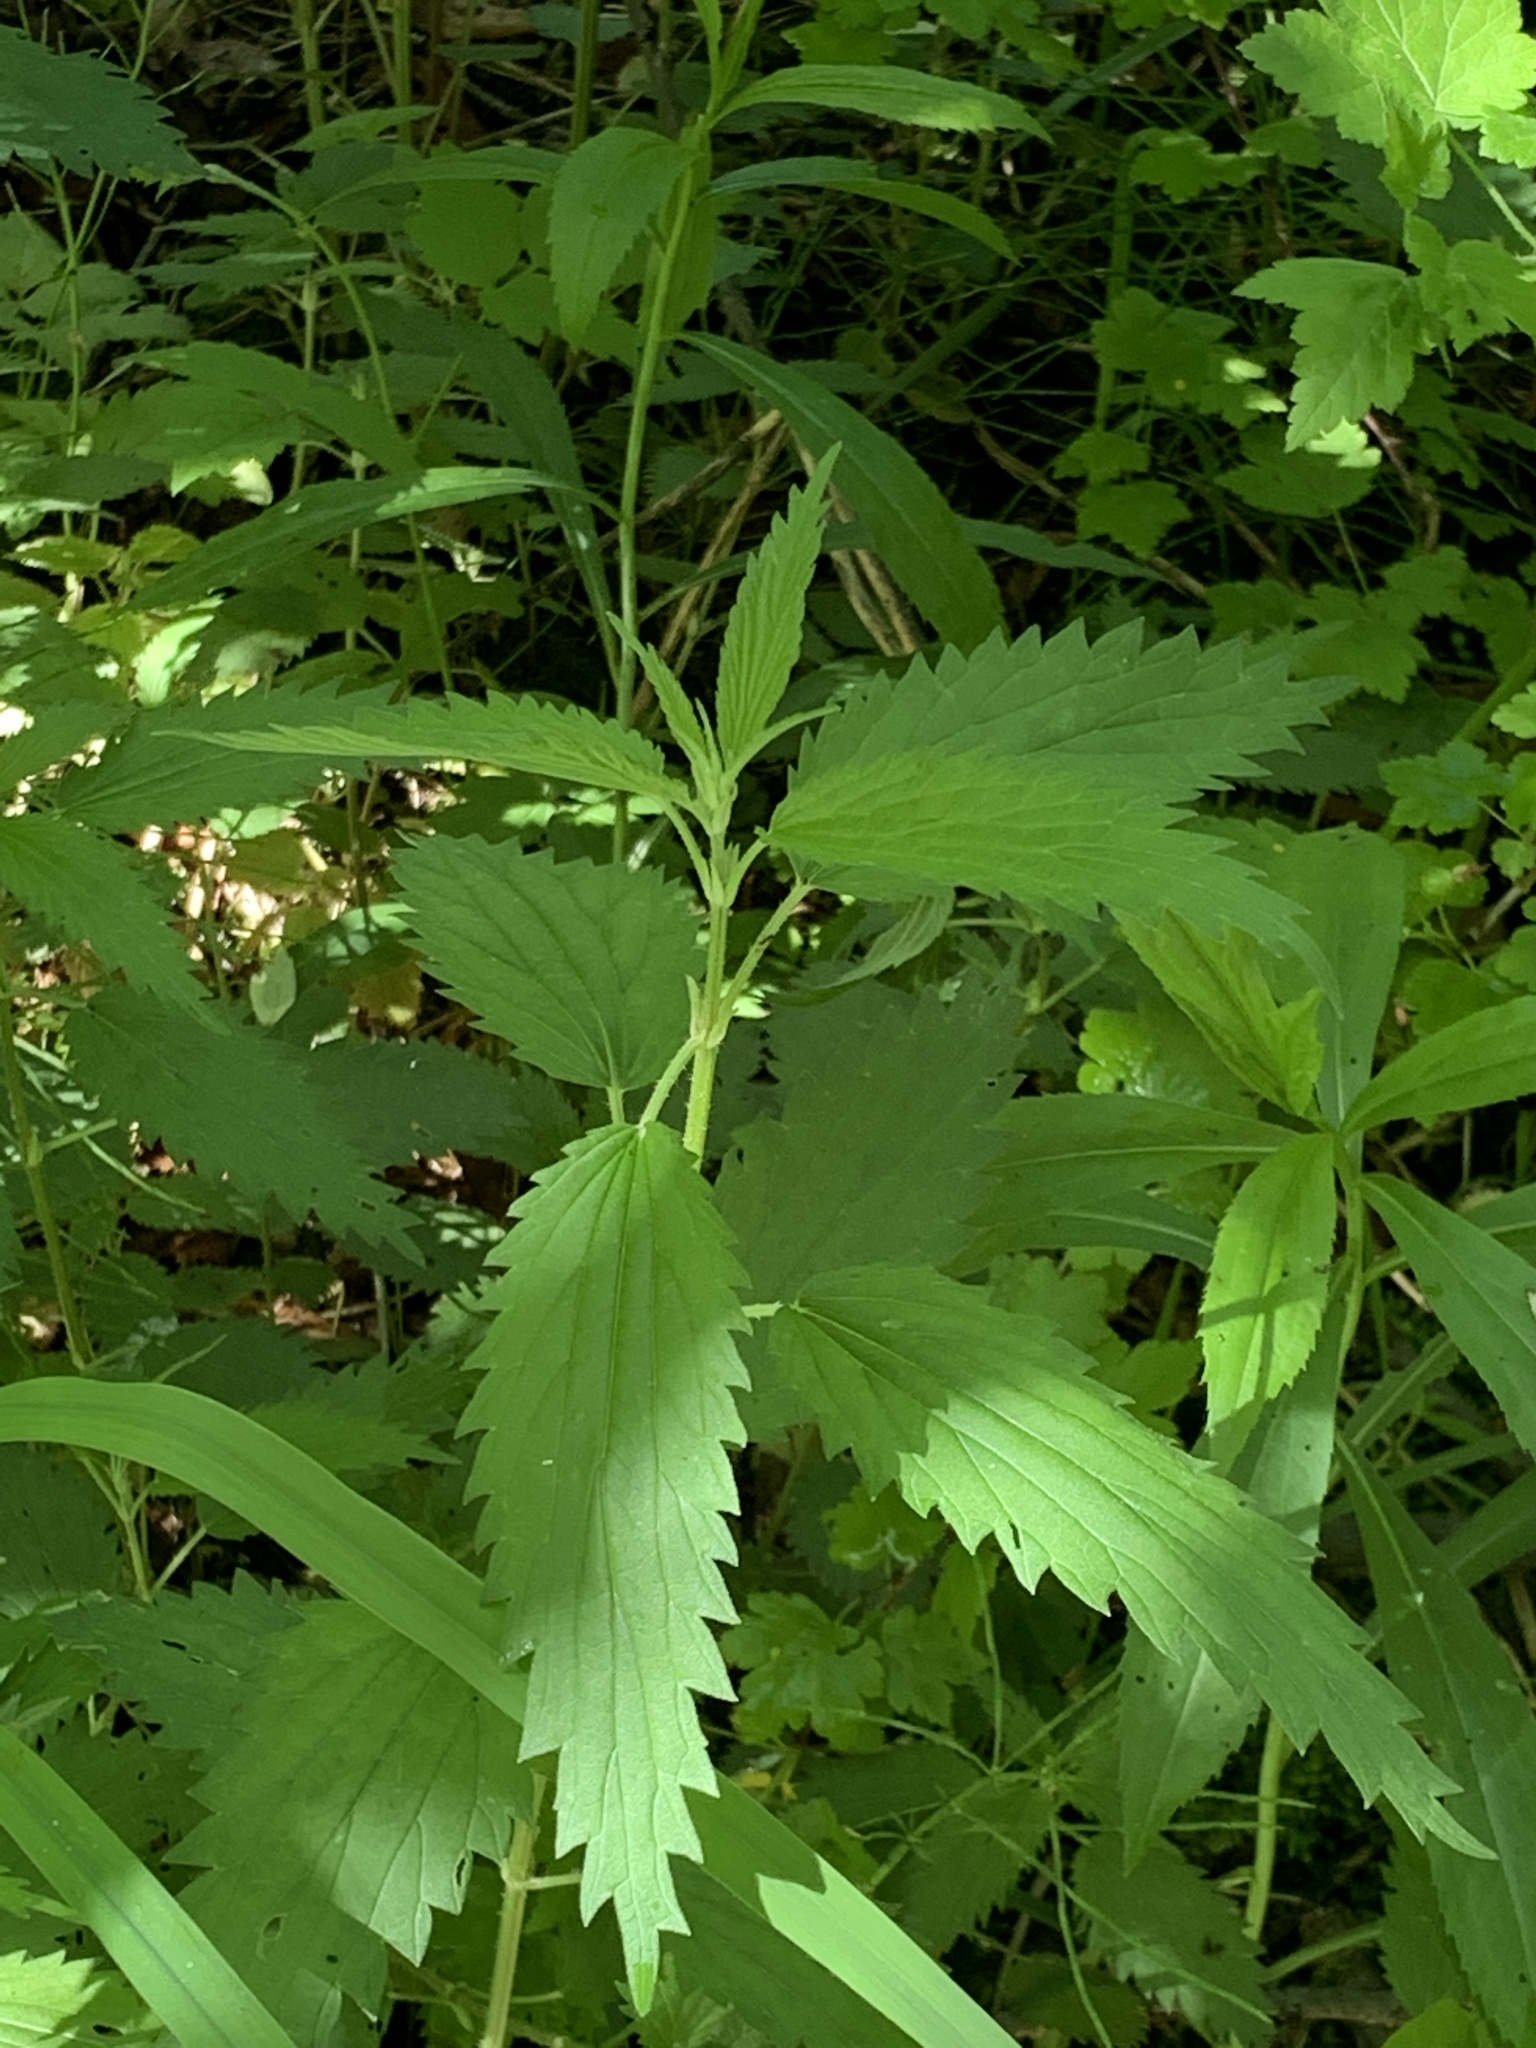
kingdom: Plantae
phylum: Tracheophyta
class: Magnoliopsida
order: Rosales
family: Urticaceae
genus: Urtica
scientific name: Urtica dioica
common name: Common nettle
